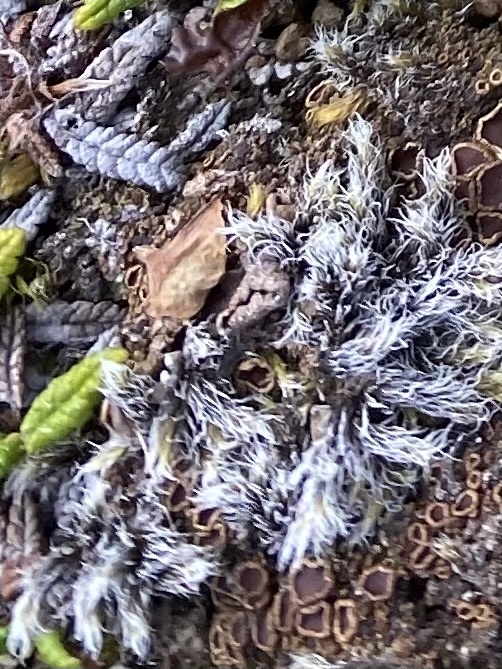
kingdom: Plantae
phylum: Bryophyta
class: Bryopsida
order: Grimmiales
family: Grimmiaceae
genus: Racomitrium
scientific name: Racomitrium lanuginosum
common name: Hoary rock moss
